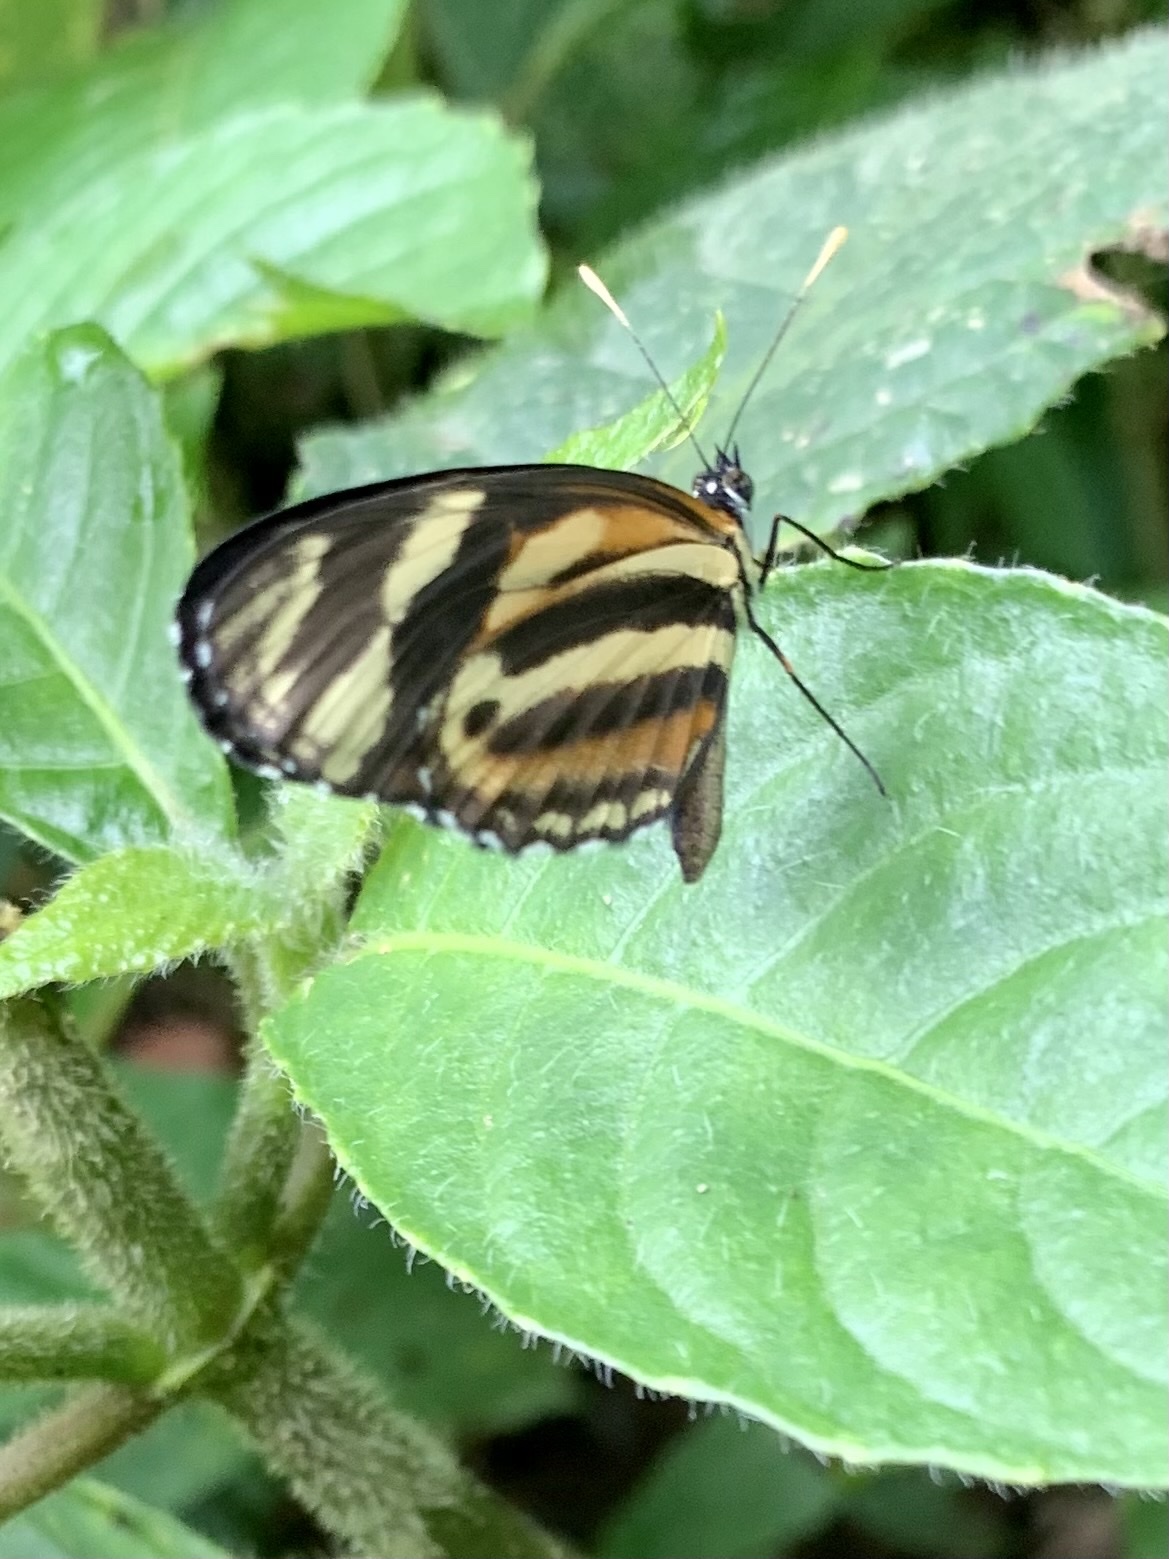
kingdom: Animalia
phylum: Arthropoda
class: Insecta
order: Lepidoptera
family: Nymphalidae
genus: Eresia
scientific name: Eresia eunice
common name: Tiger crescent
